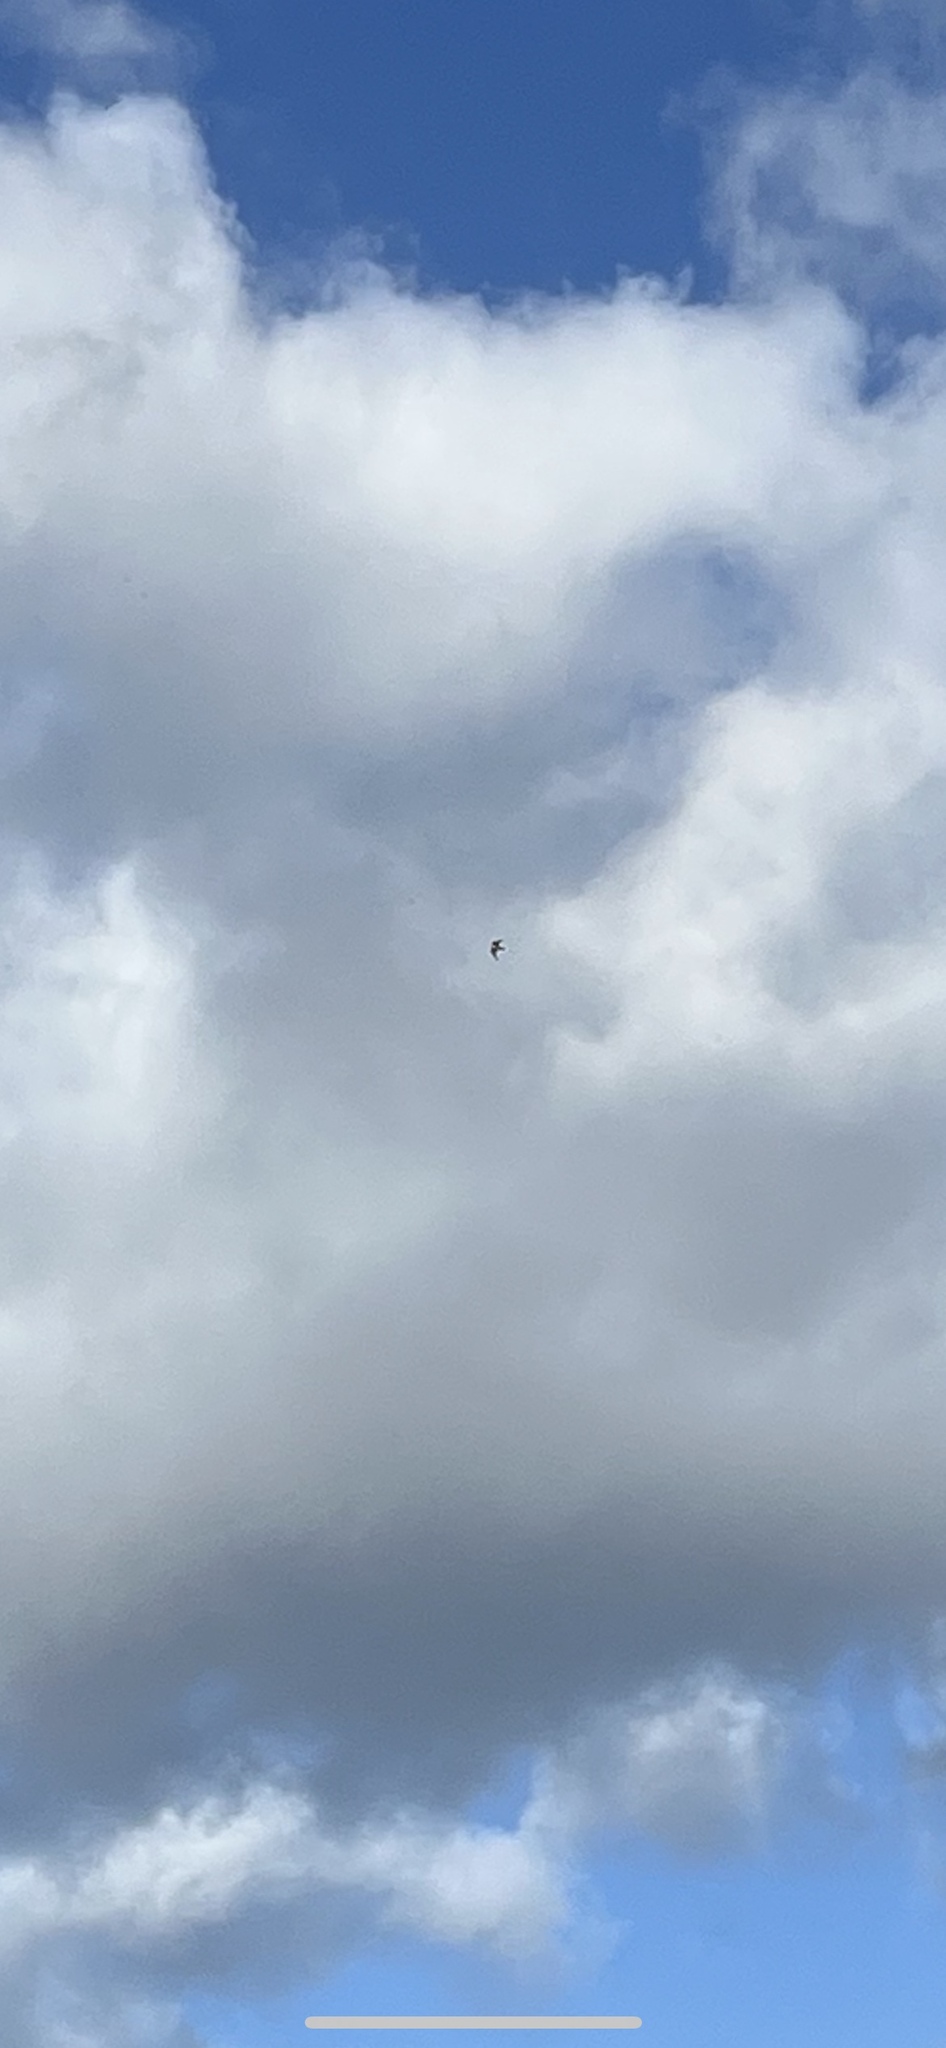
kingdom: Animalia
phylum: Chordata
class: Aves
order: Falconiformes
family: Falconidae
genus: Falco
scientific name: Falco peregrinus
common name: Peregrine falcon
